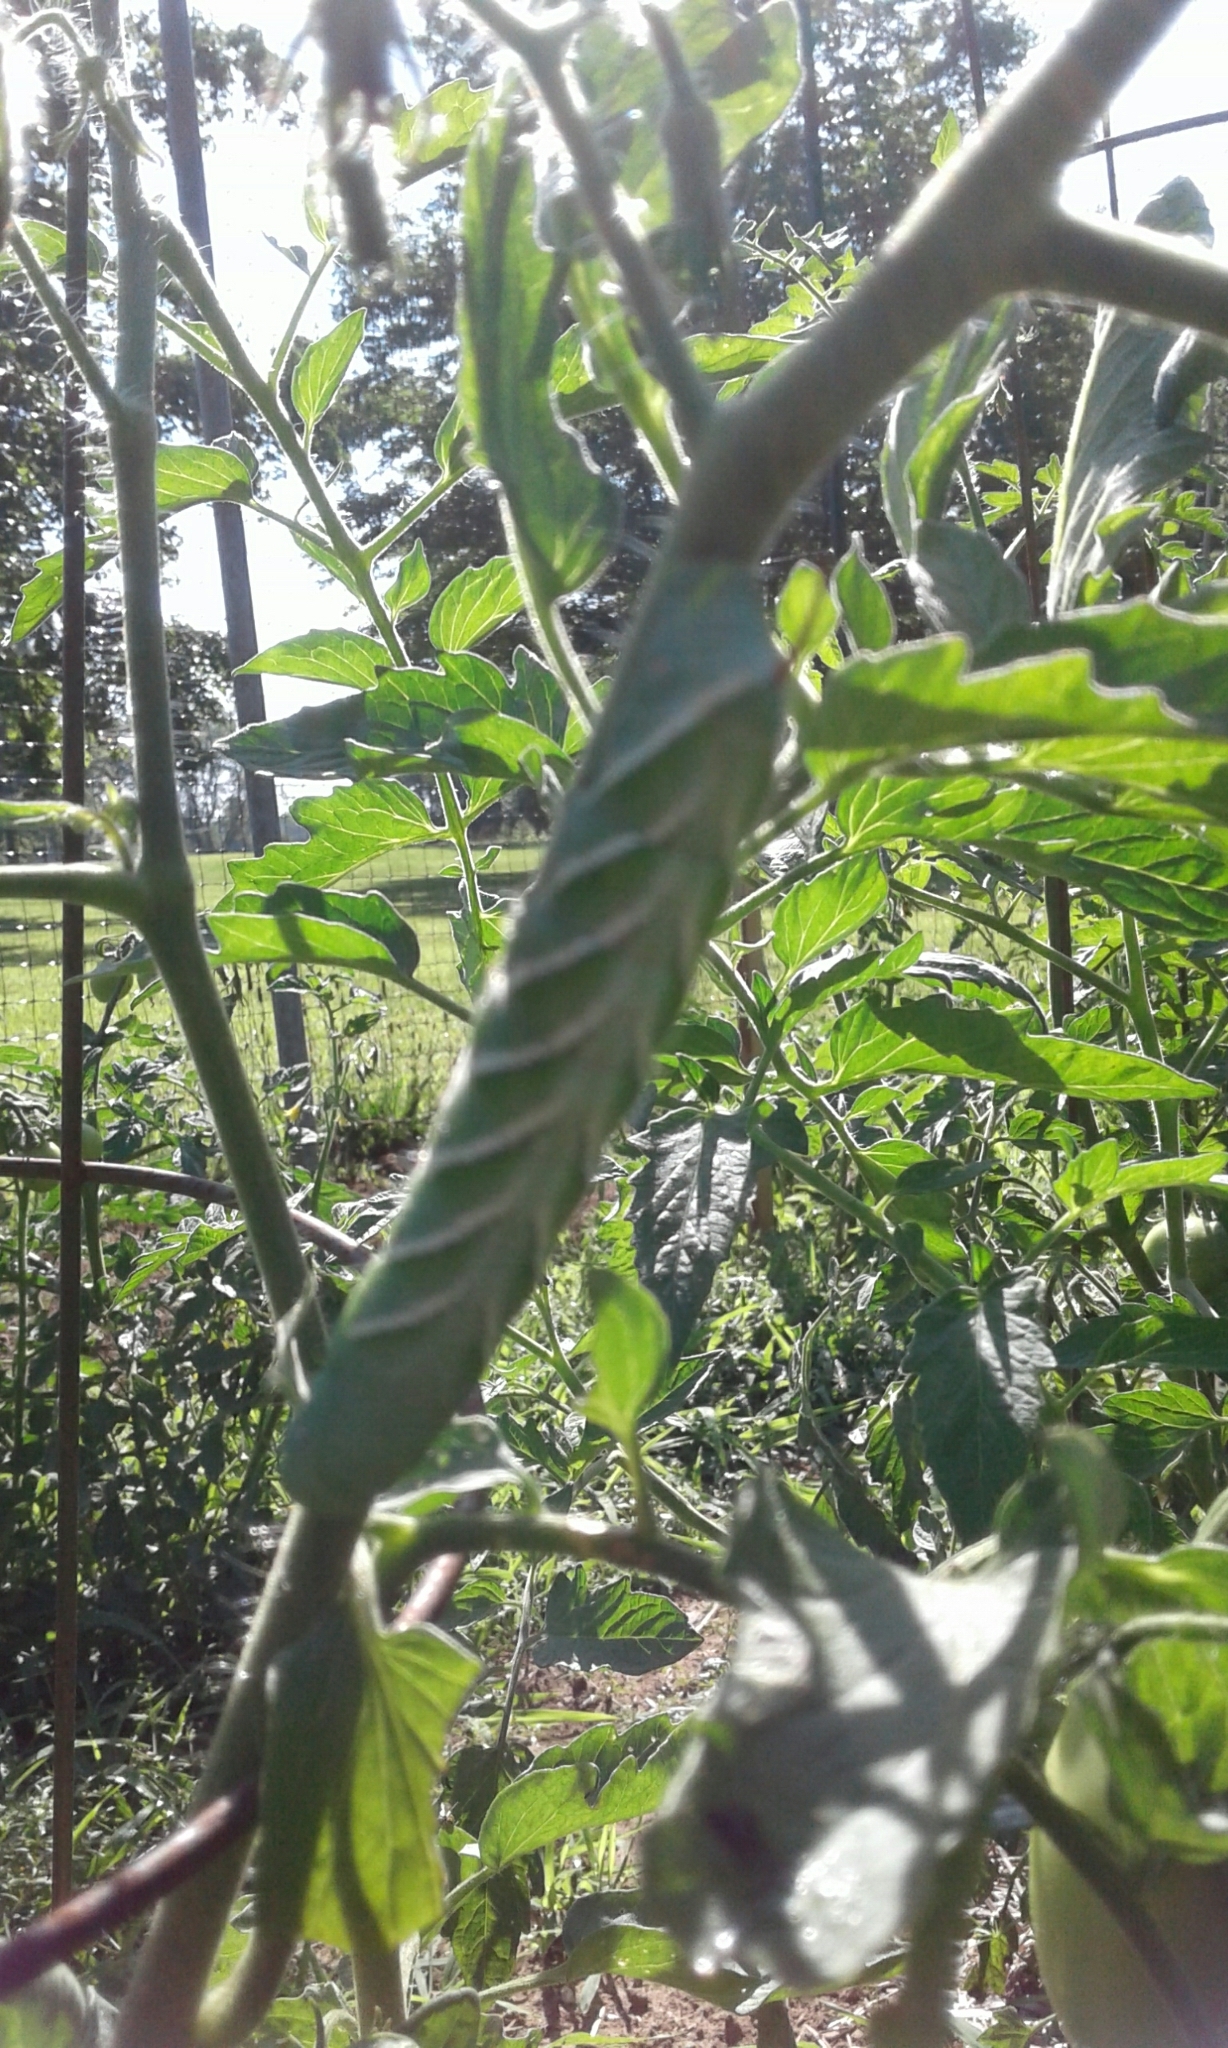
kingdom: Animalia
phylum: Arthropoda
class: Insecta
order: Lepidoptera
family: Sphingidae
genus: Manduca
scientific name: Manduca sexta
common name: Carolina sphinx
